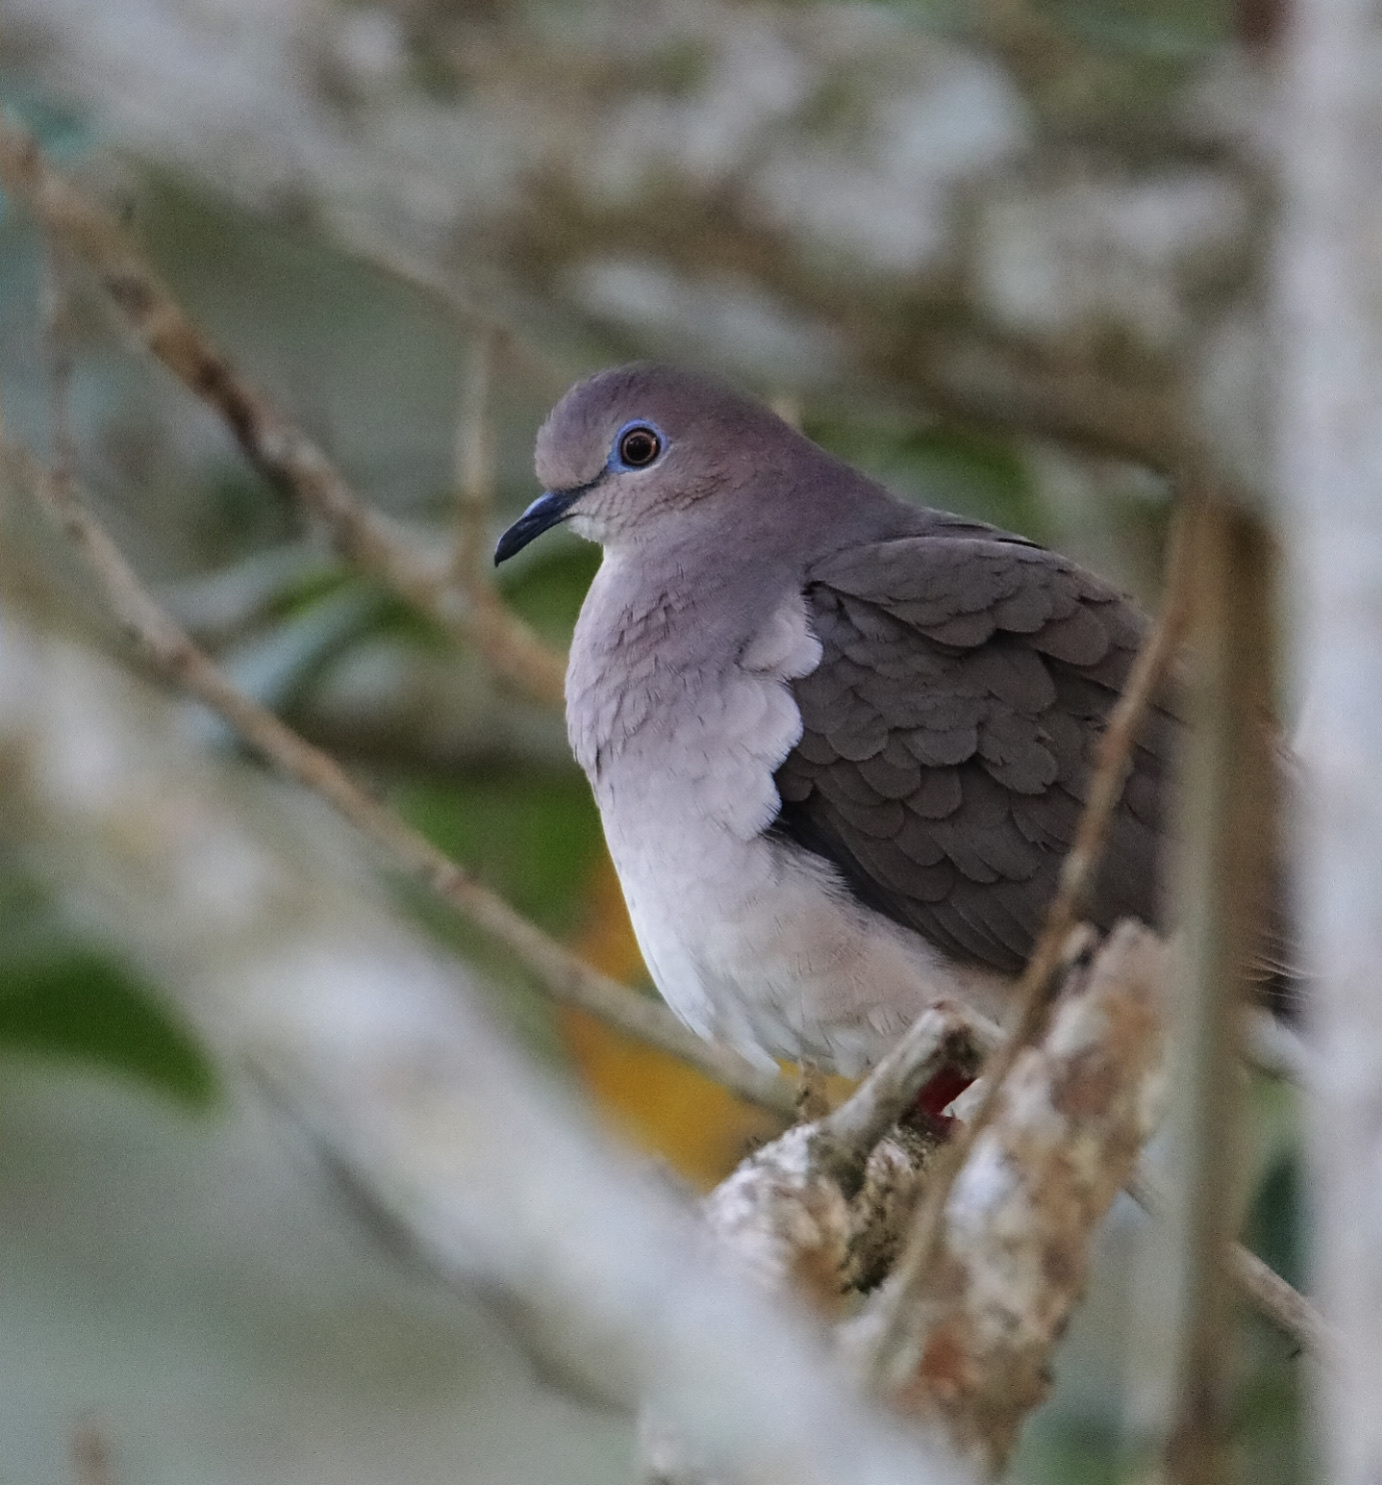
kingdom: Animalia
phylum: Chordata
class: Aves
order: Columbiformes
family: Columbidae
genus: Leptotila
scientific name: Leptotila verreauxi
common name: White-tipped dove
